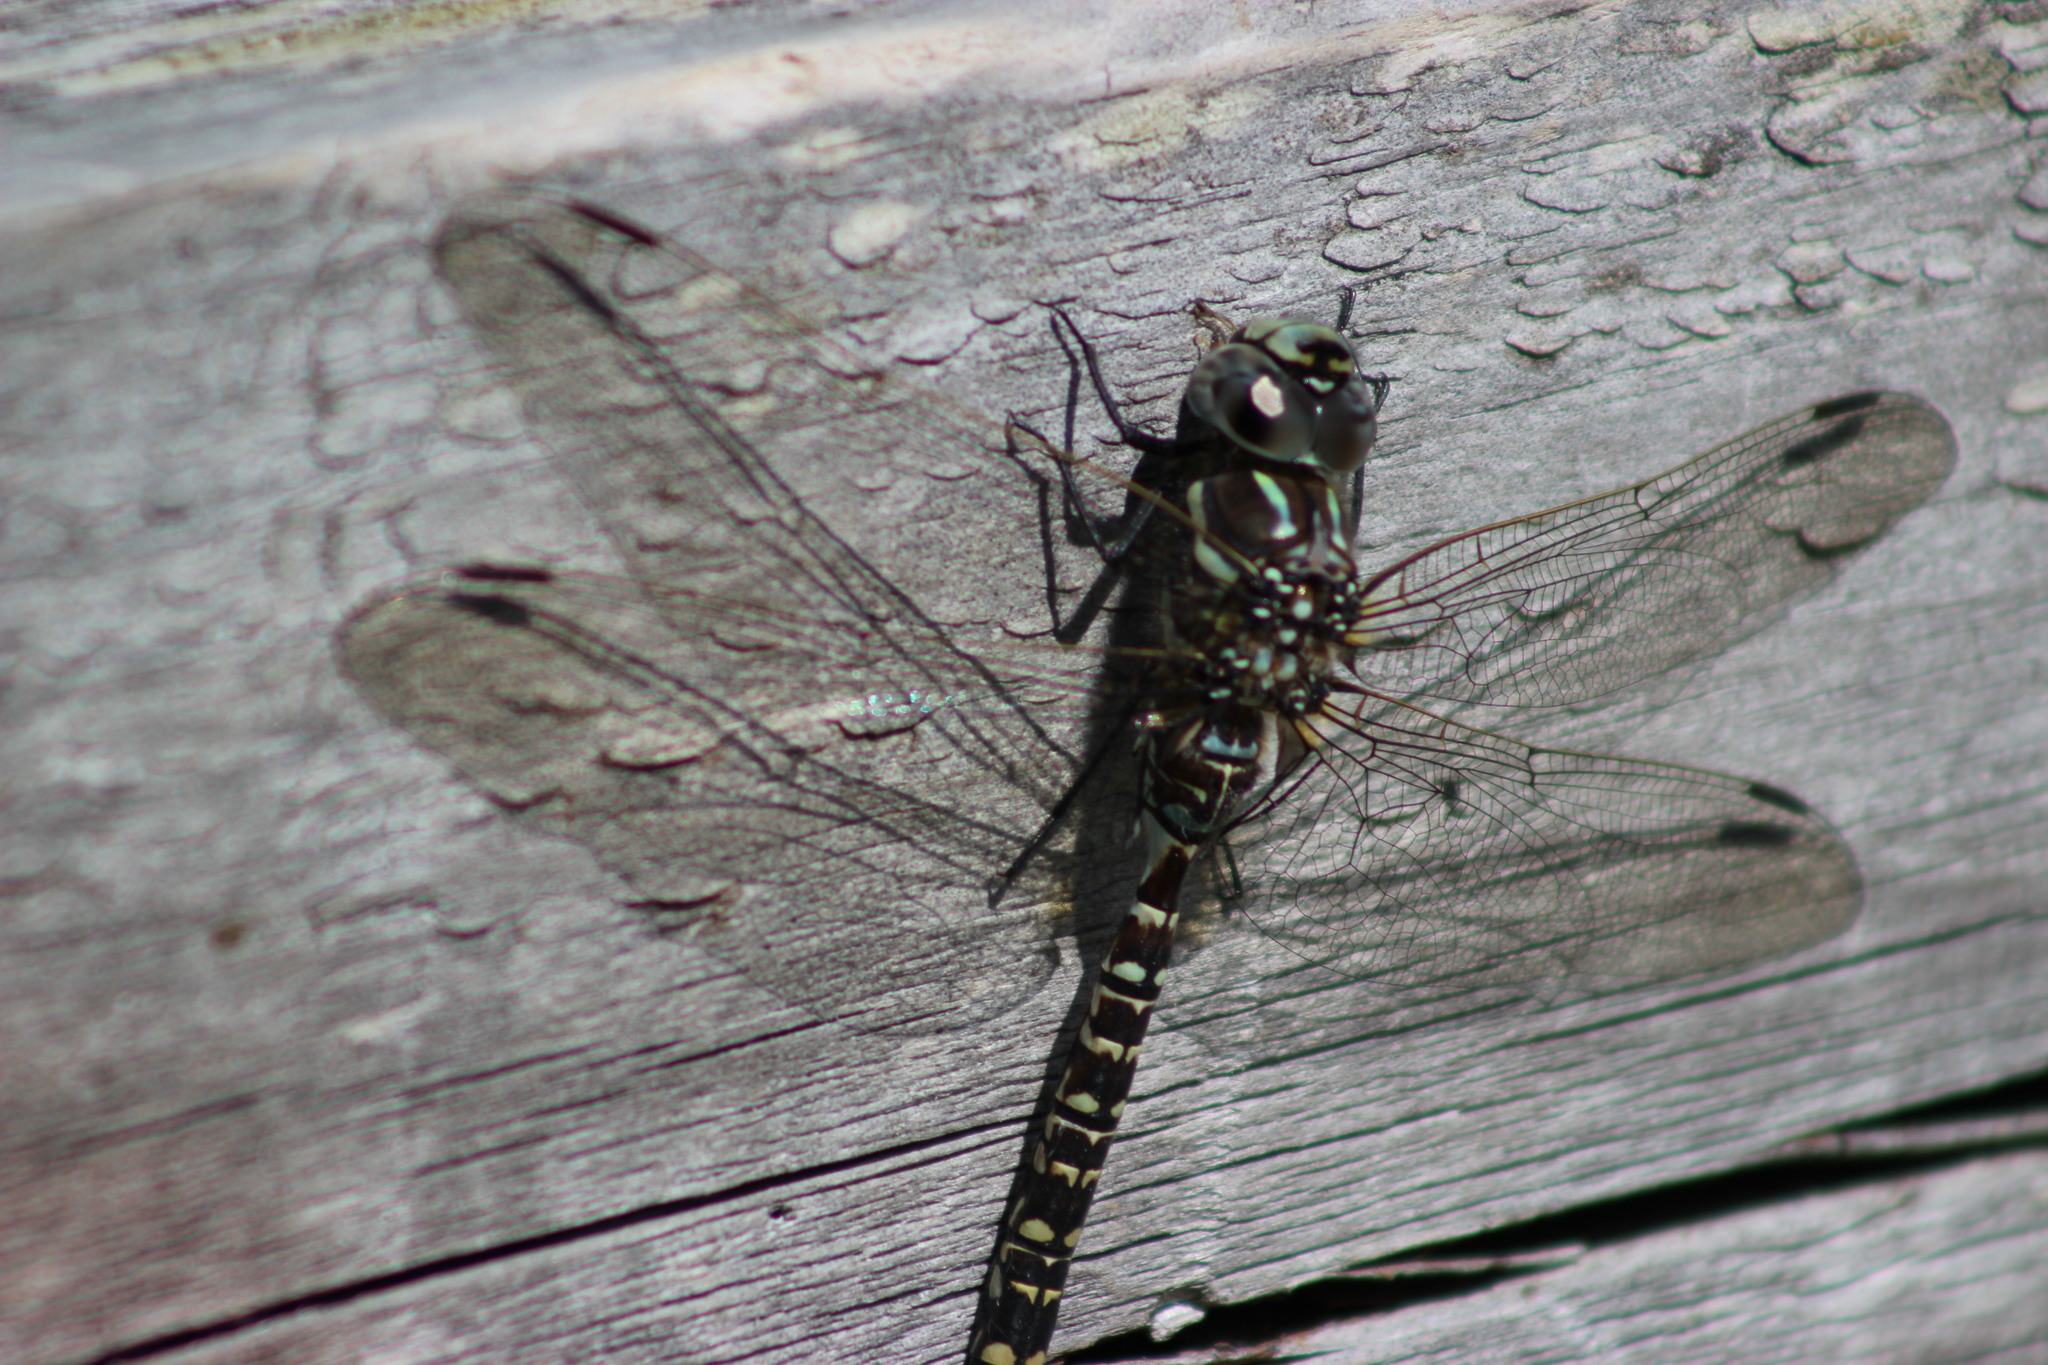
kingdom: Animalia
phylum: Arthropoda
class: Insecta
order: Odonata
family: Aeshnidae
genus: Aeshna
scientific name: Aeshna subarctica
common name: Subarctic darner
